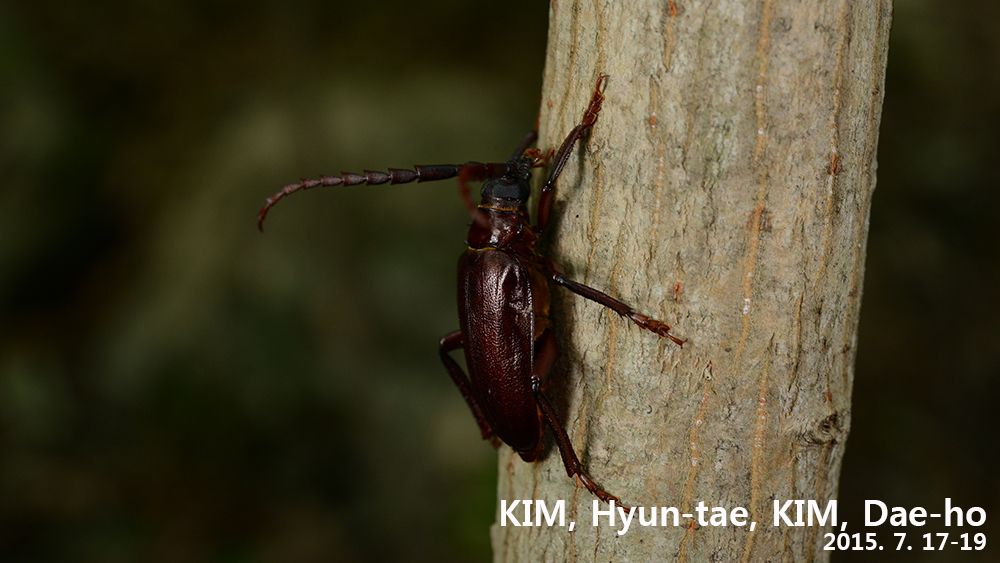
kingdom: Animalia
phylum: Arthropoda
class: Insecta
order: Coleoptera
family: Cerambycidae
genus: Prionus
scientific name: Prionus insularis
